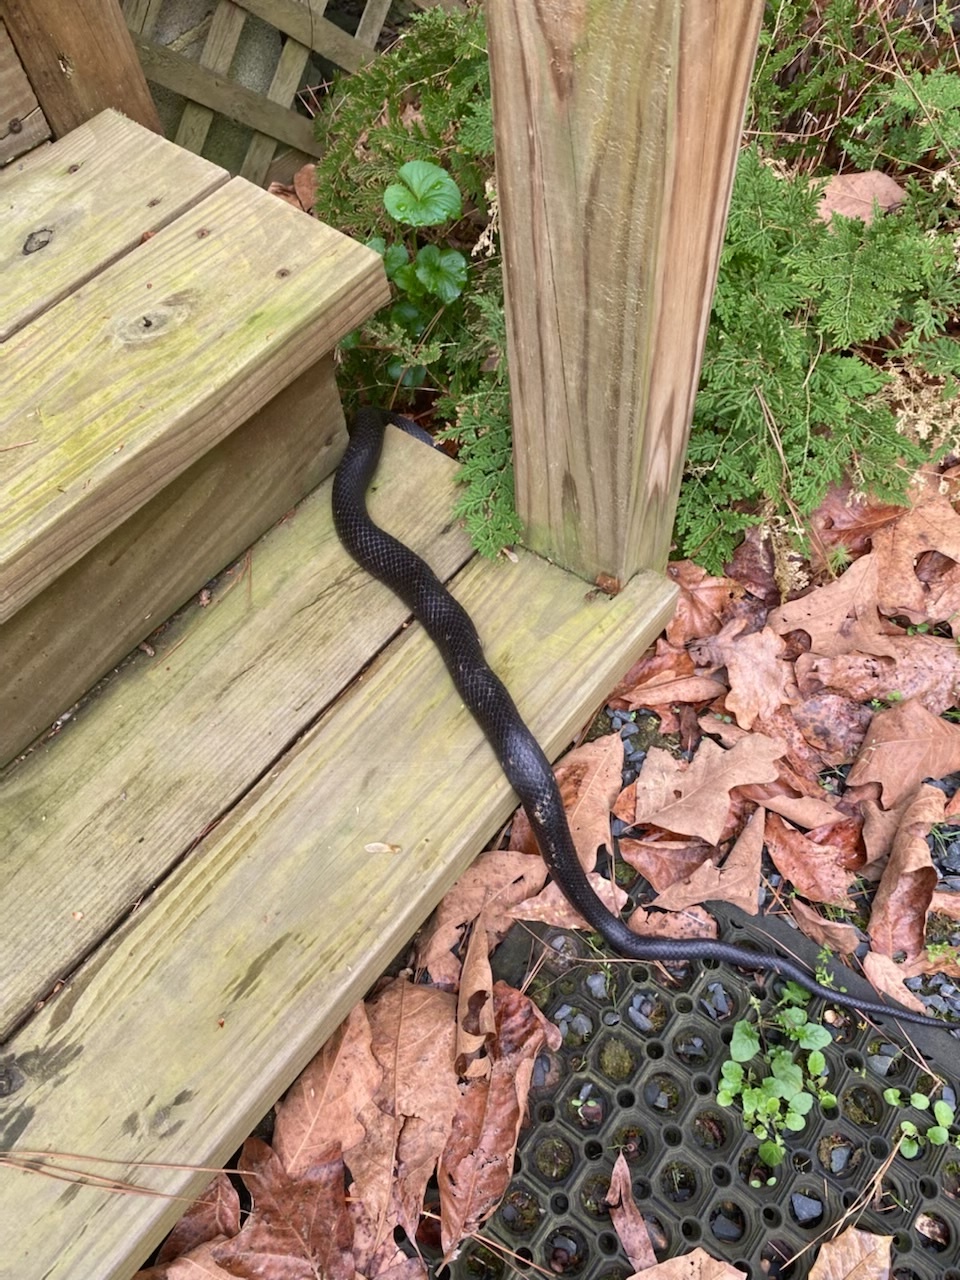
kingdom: Animalia
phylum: Chordata
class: Squamata
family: Colubridae
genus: Pantherophis
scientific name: Pantherophis alleghaniensis
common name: Eastern rat snake
